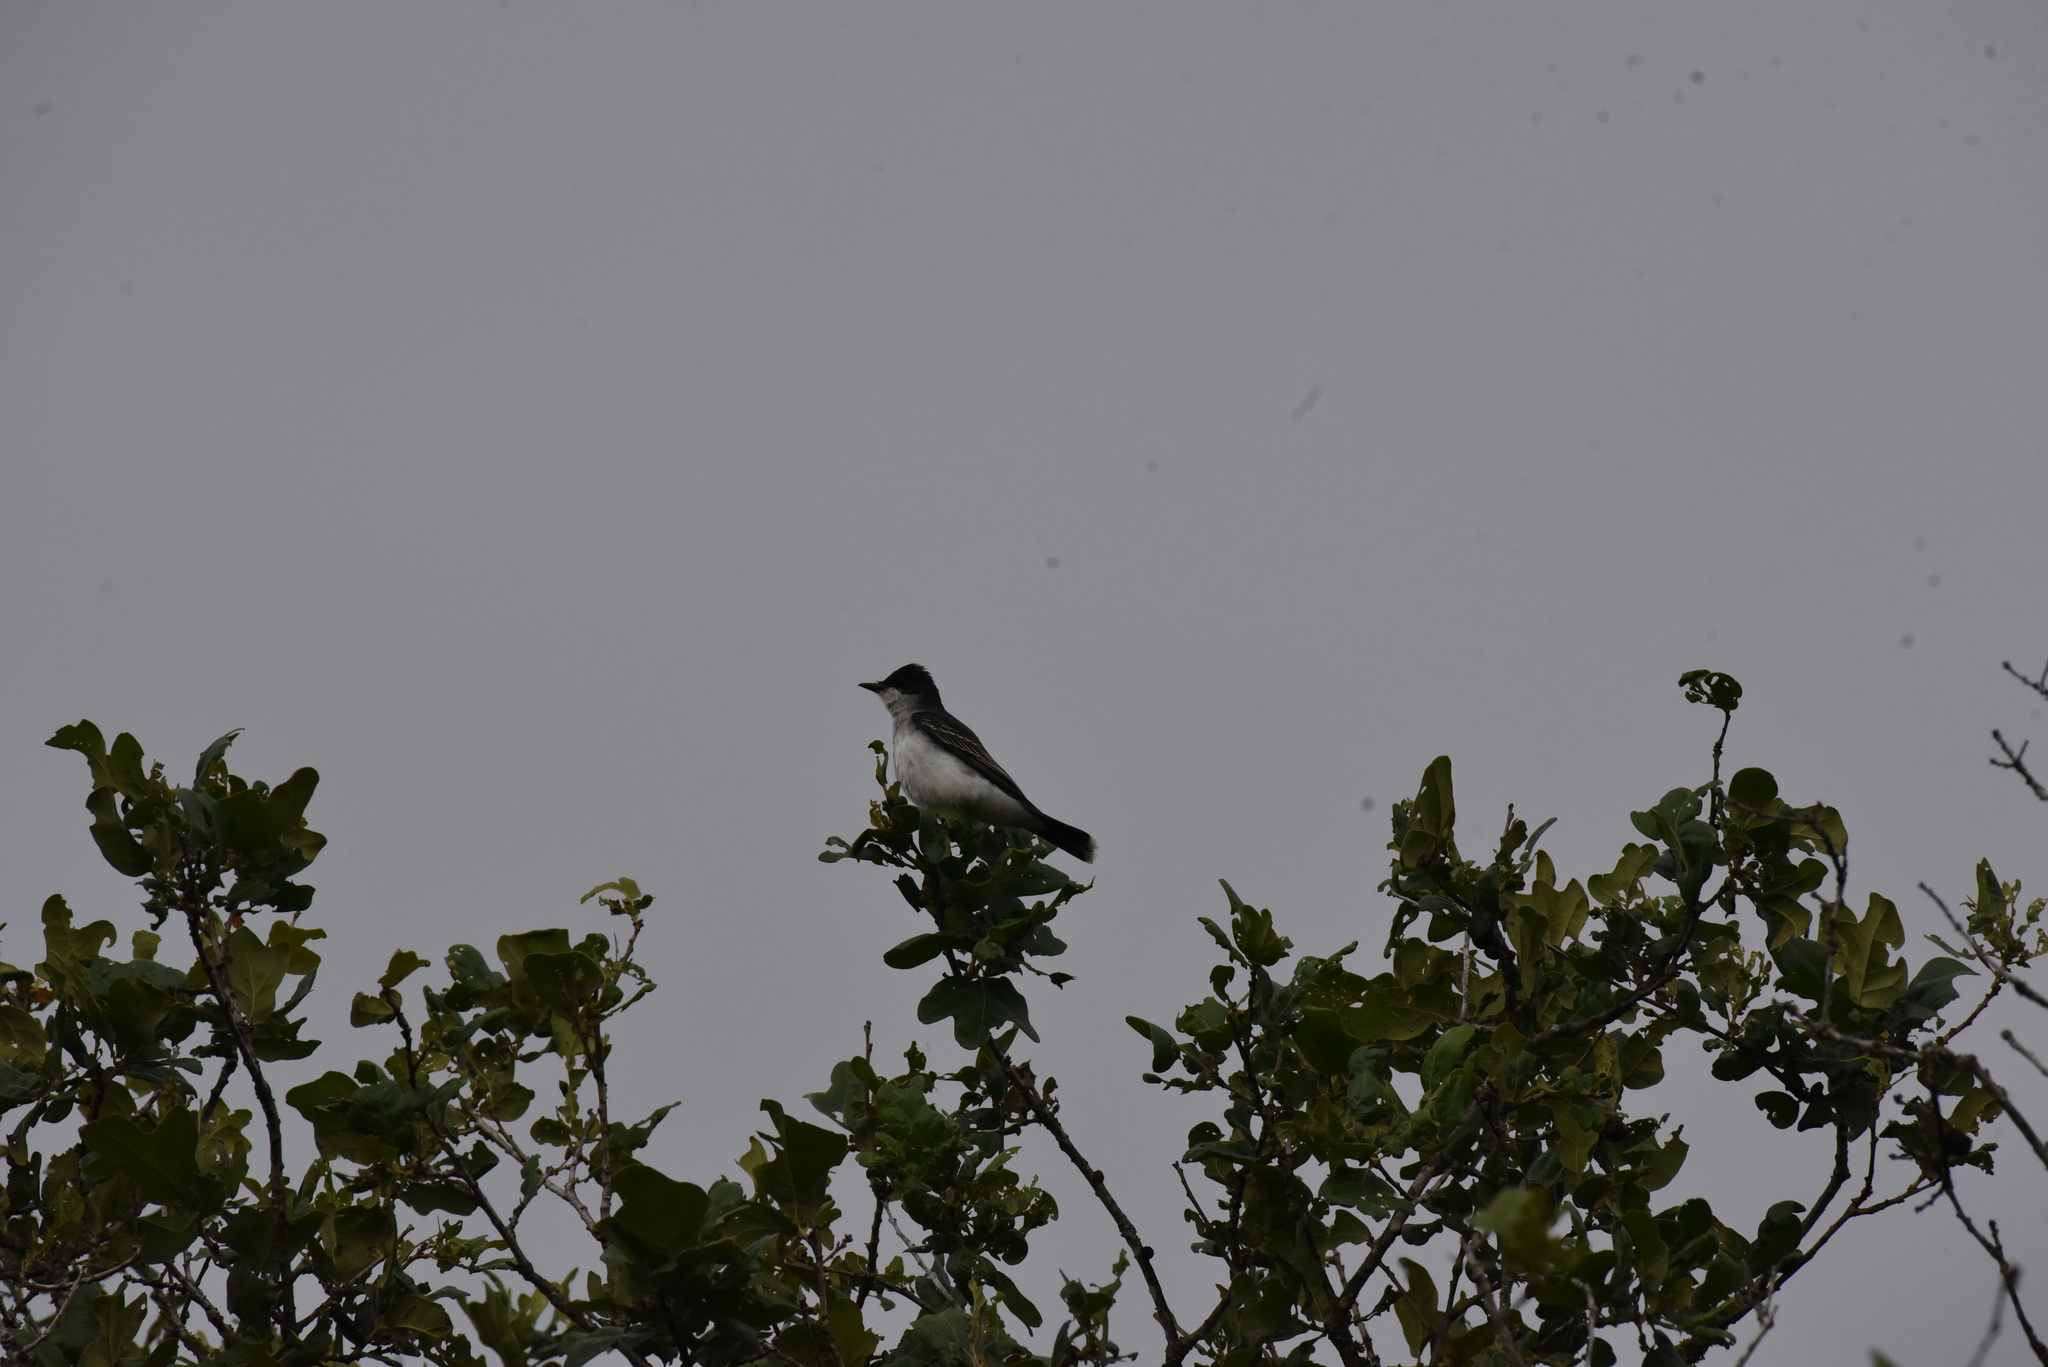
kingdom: Animalia
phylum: Chordata
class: Aves
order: Passeriformes
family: Tyrannidae
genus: Tyrannus
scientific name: Tyrannus tyrannus
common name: Eastern kingbird
